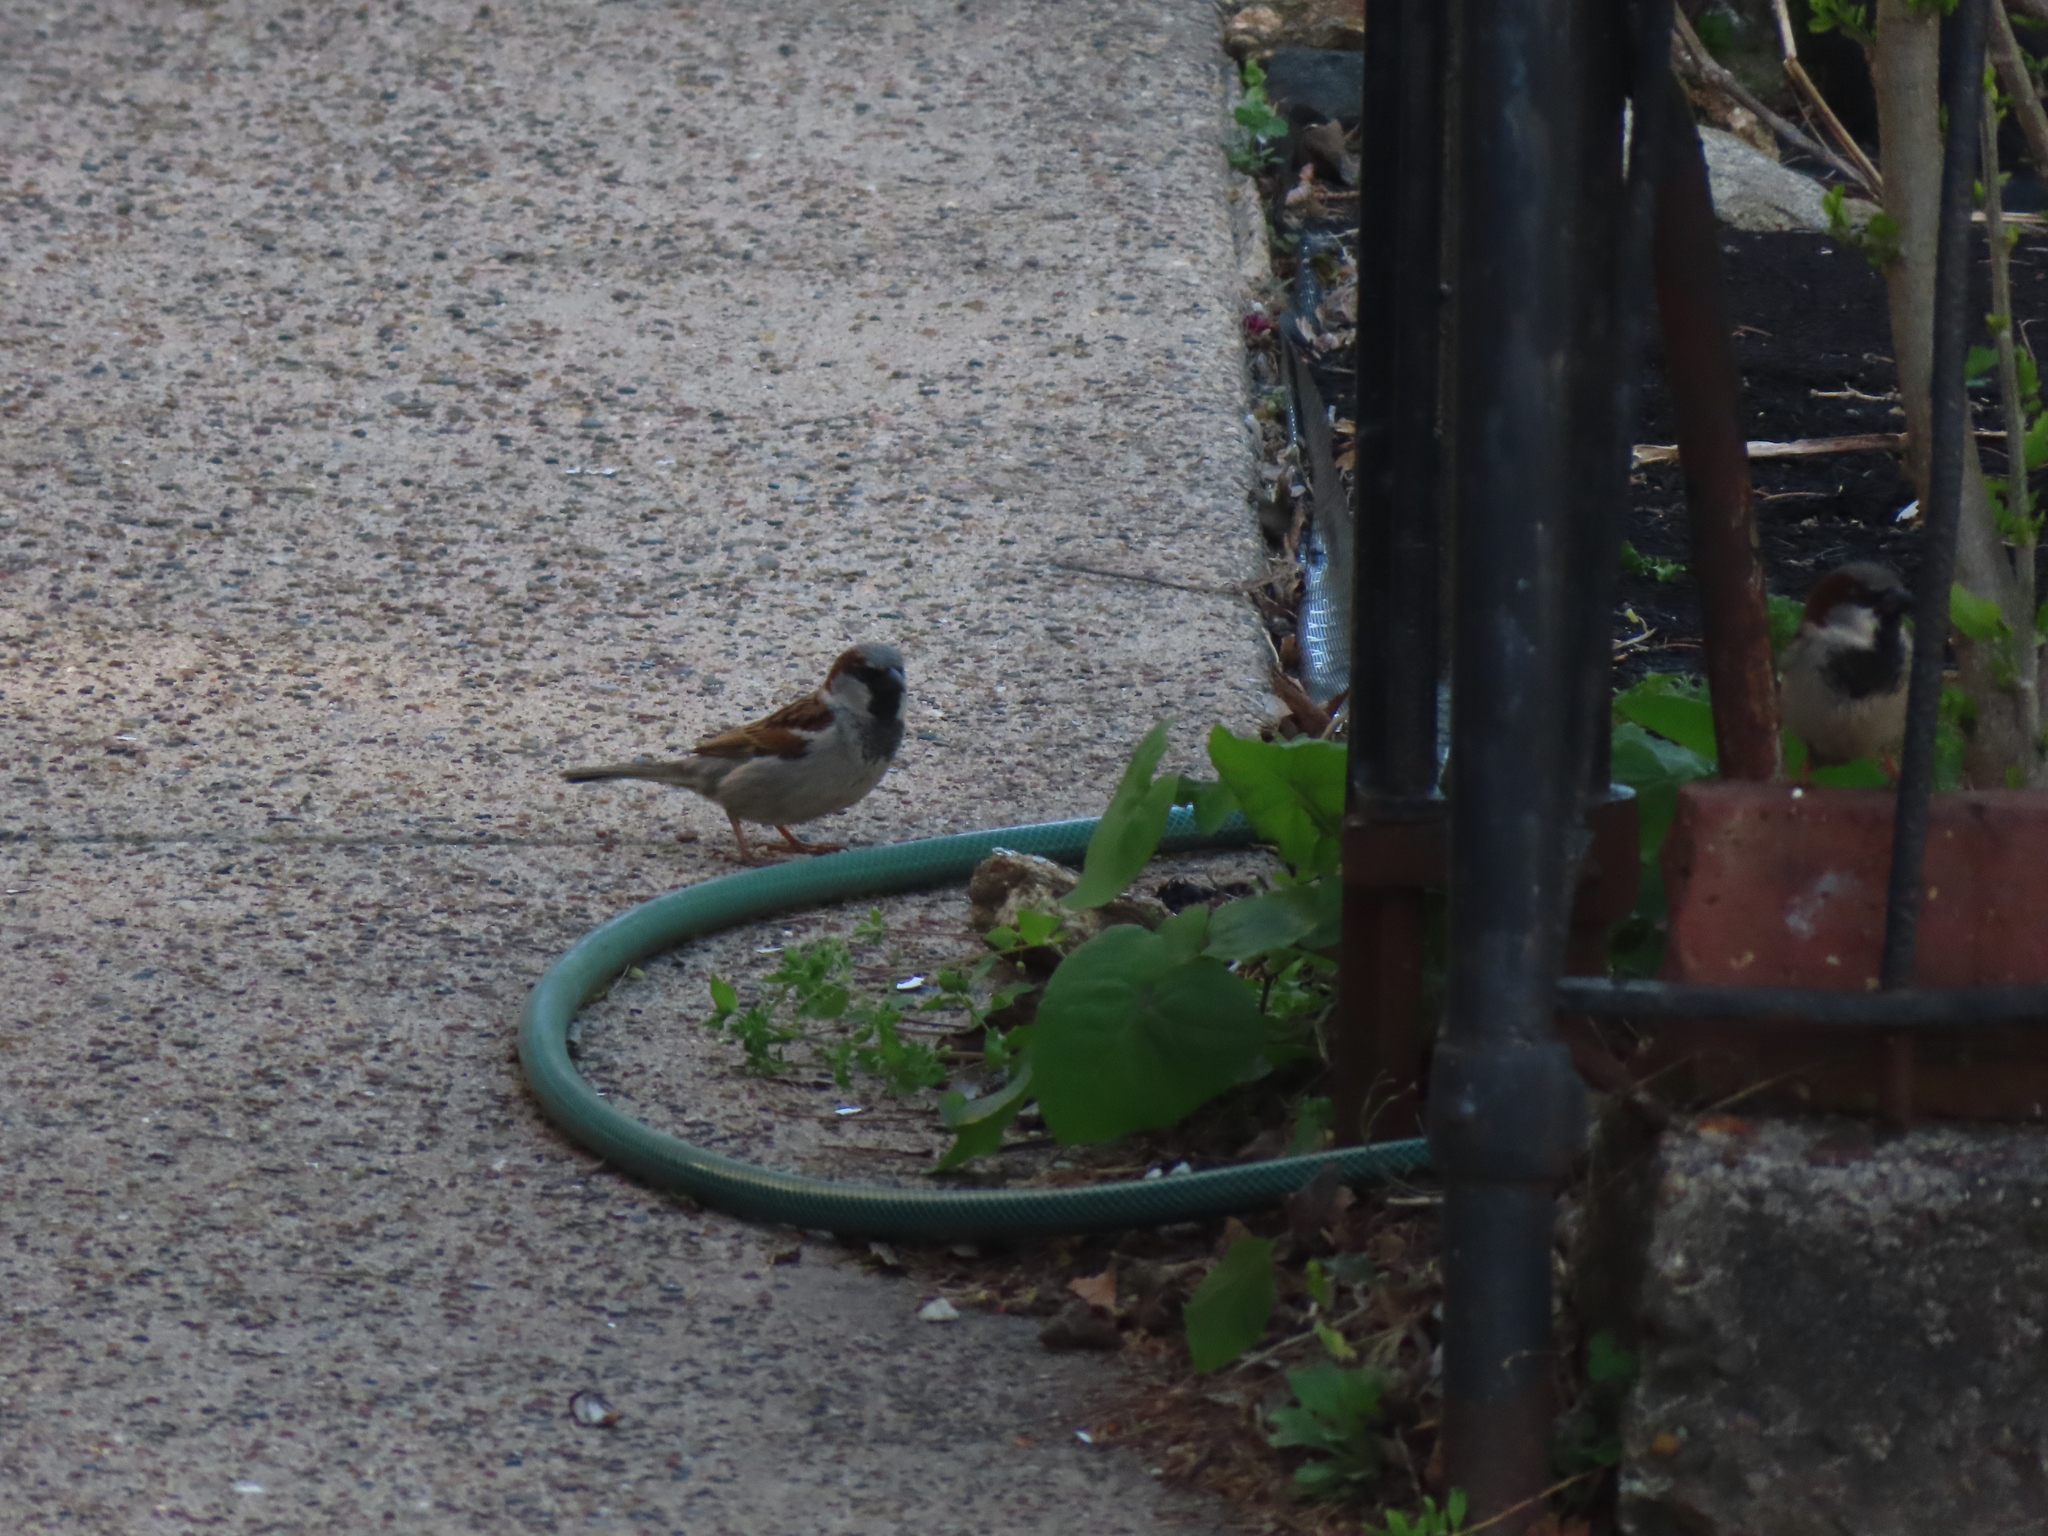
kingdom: Animalia
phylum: Chordata
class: Aves
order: Passeriformes
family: Passeridae
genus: Passer
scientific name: Passer domesticus
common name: House sparrow
